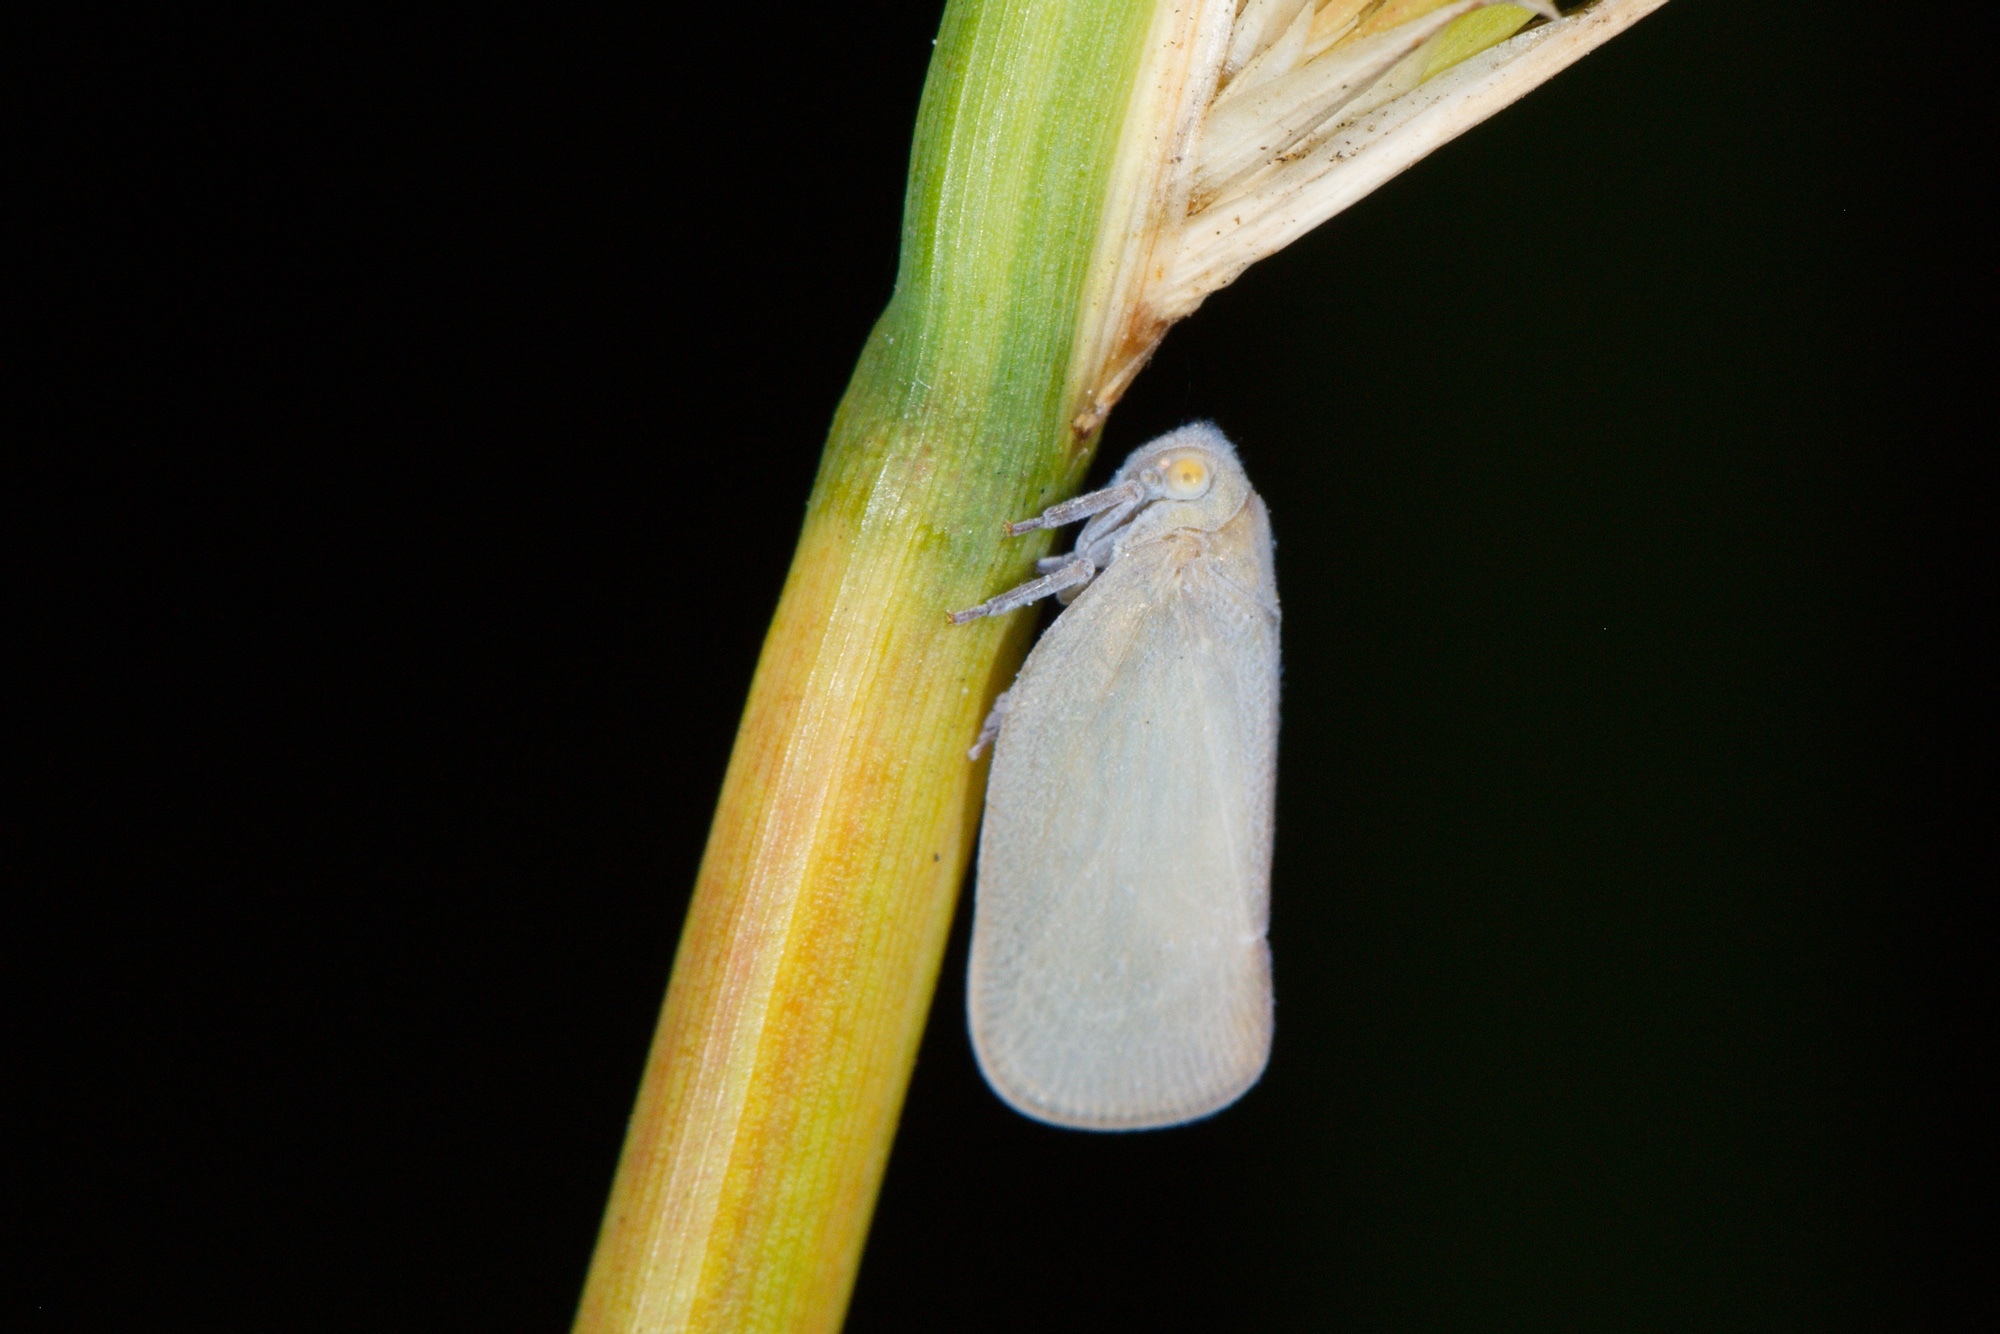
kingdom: Animalia
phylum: Arthropoda
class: Insecta
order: Hemiptera
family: Flatidae
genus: Anzora
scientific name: Anzora unicolor
